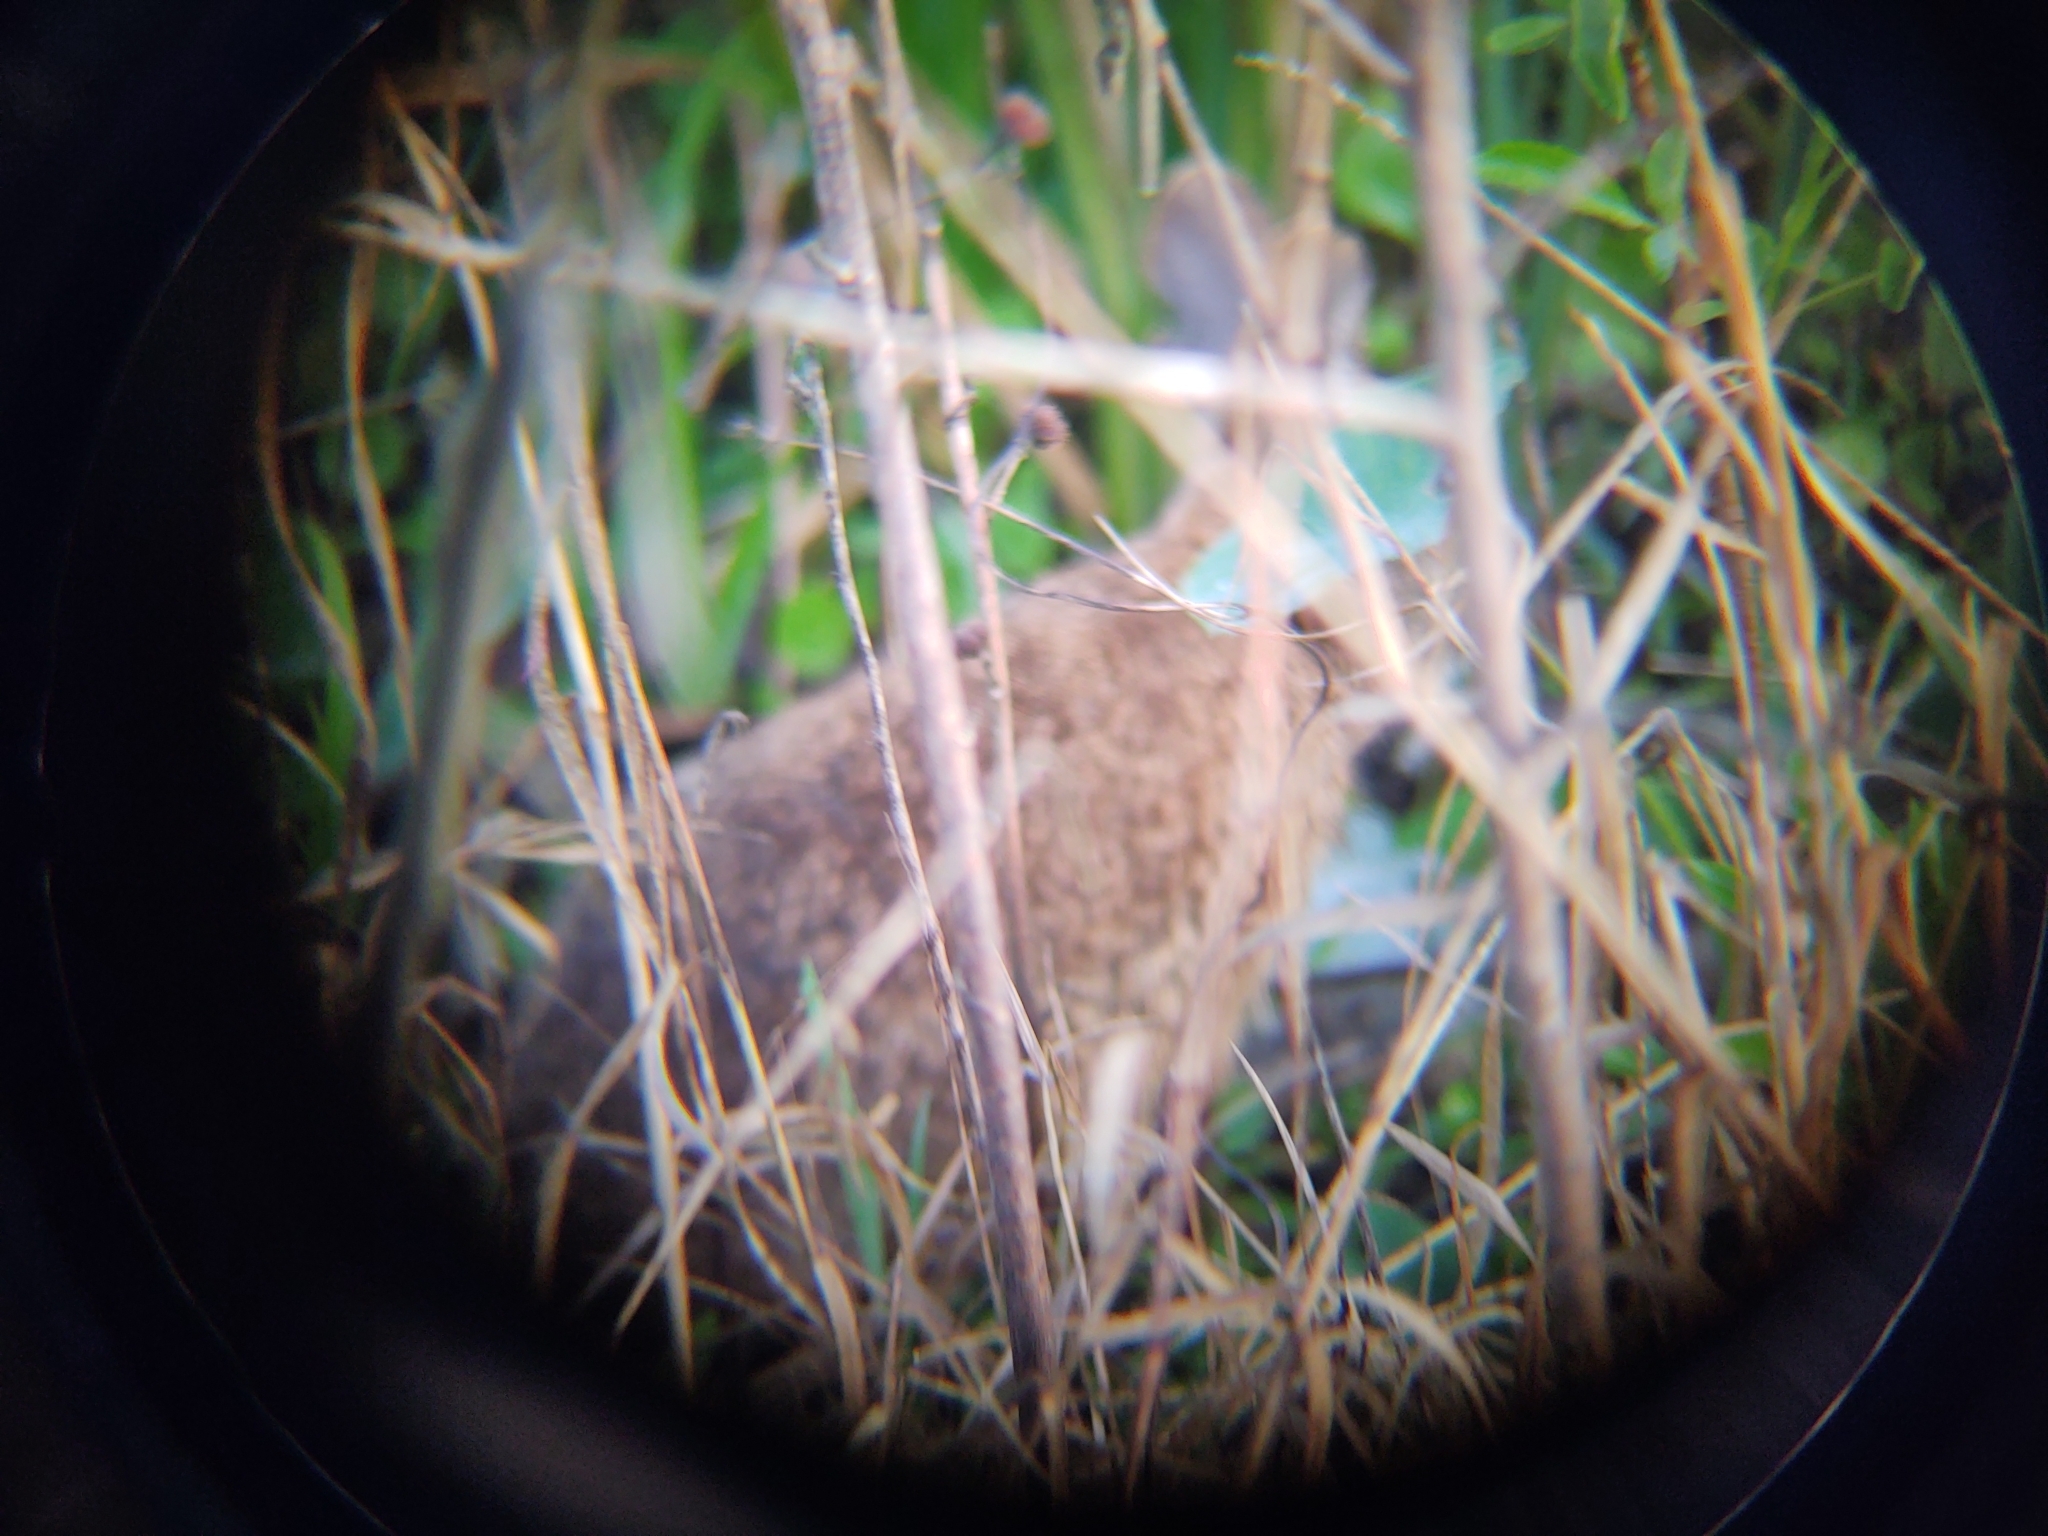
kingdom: Animalia
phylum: Chordata
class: Mammalia
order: Lagomorpha
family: Leporidae
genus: Sylvilagus
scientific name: Sylvilagus palustris
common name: Marsh rabbit
